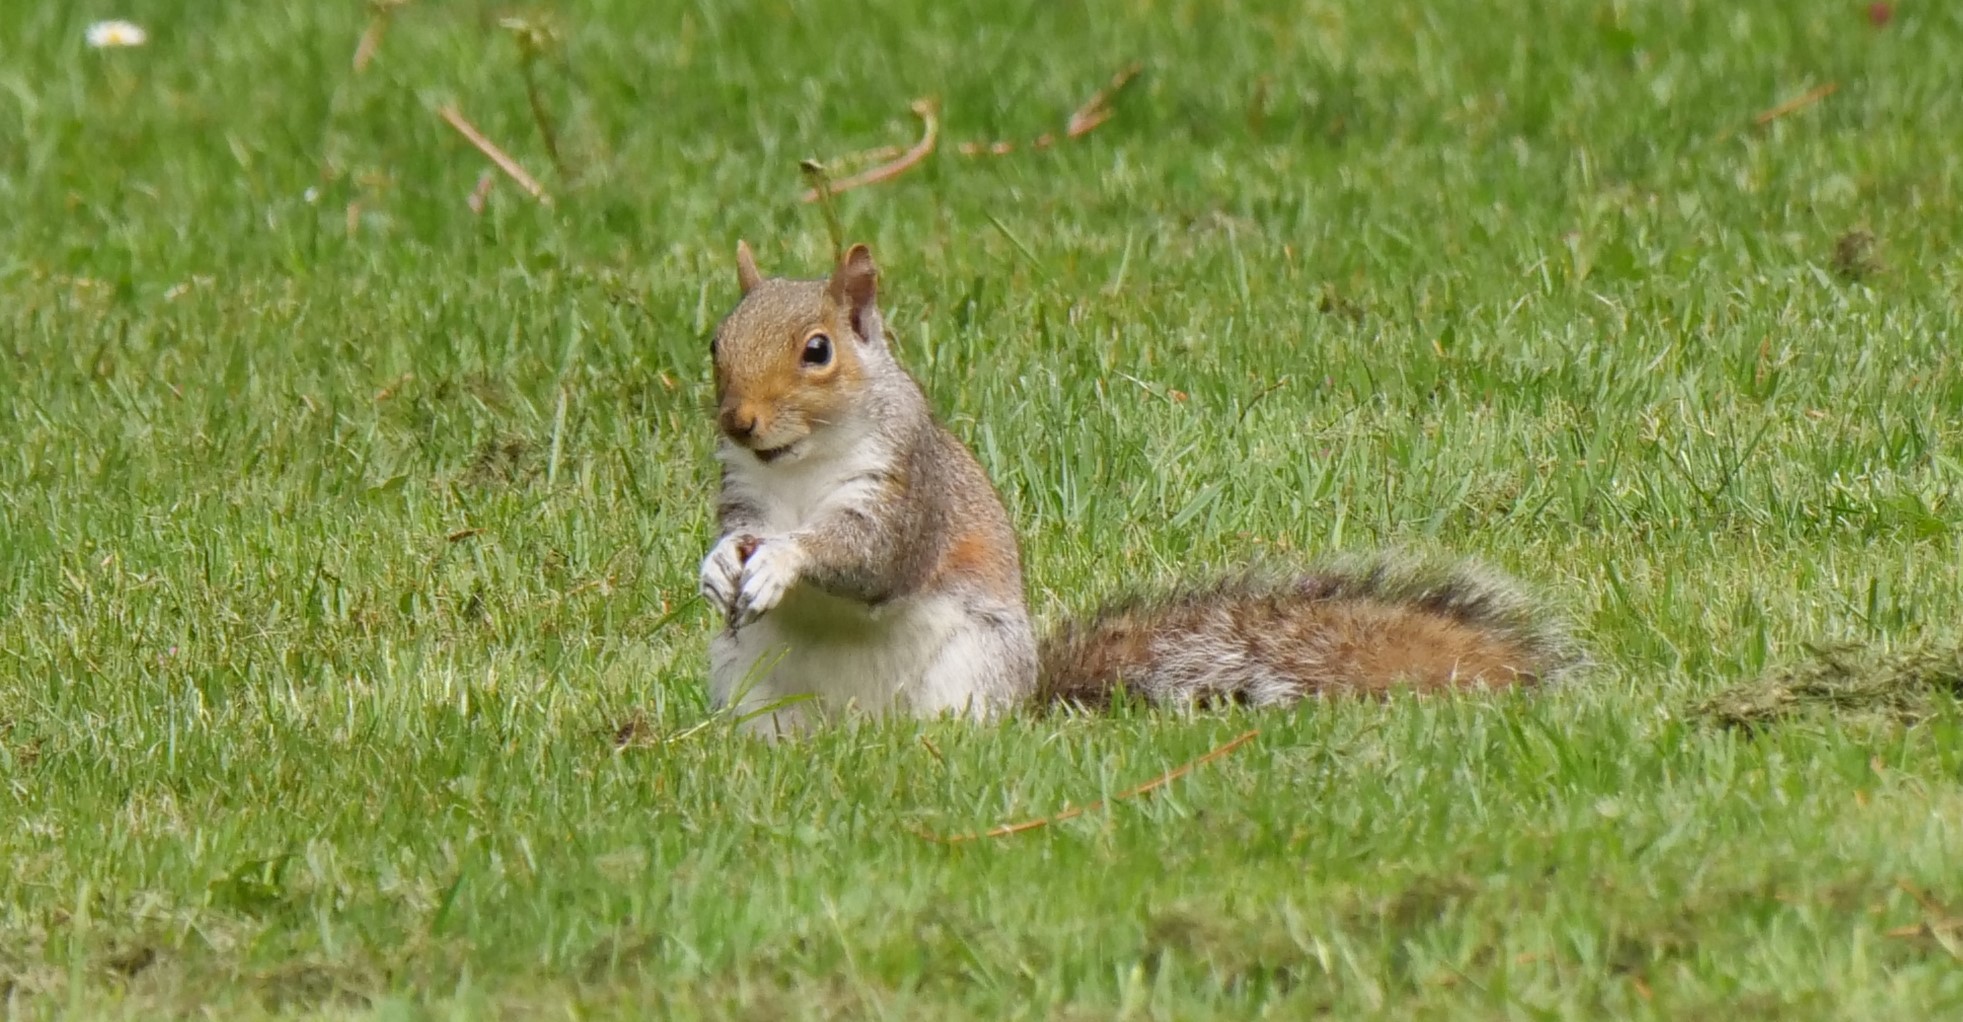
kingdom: Animalia
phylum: Chordata
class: Mammalia
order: Rodentia
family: Sciuridae
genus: Sciurus
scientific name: Sciurus carolinensis
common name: Eastern gray squirrel
